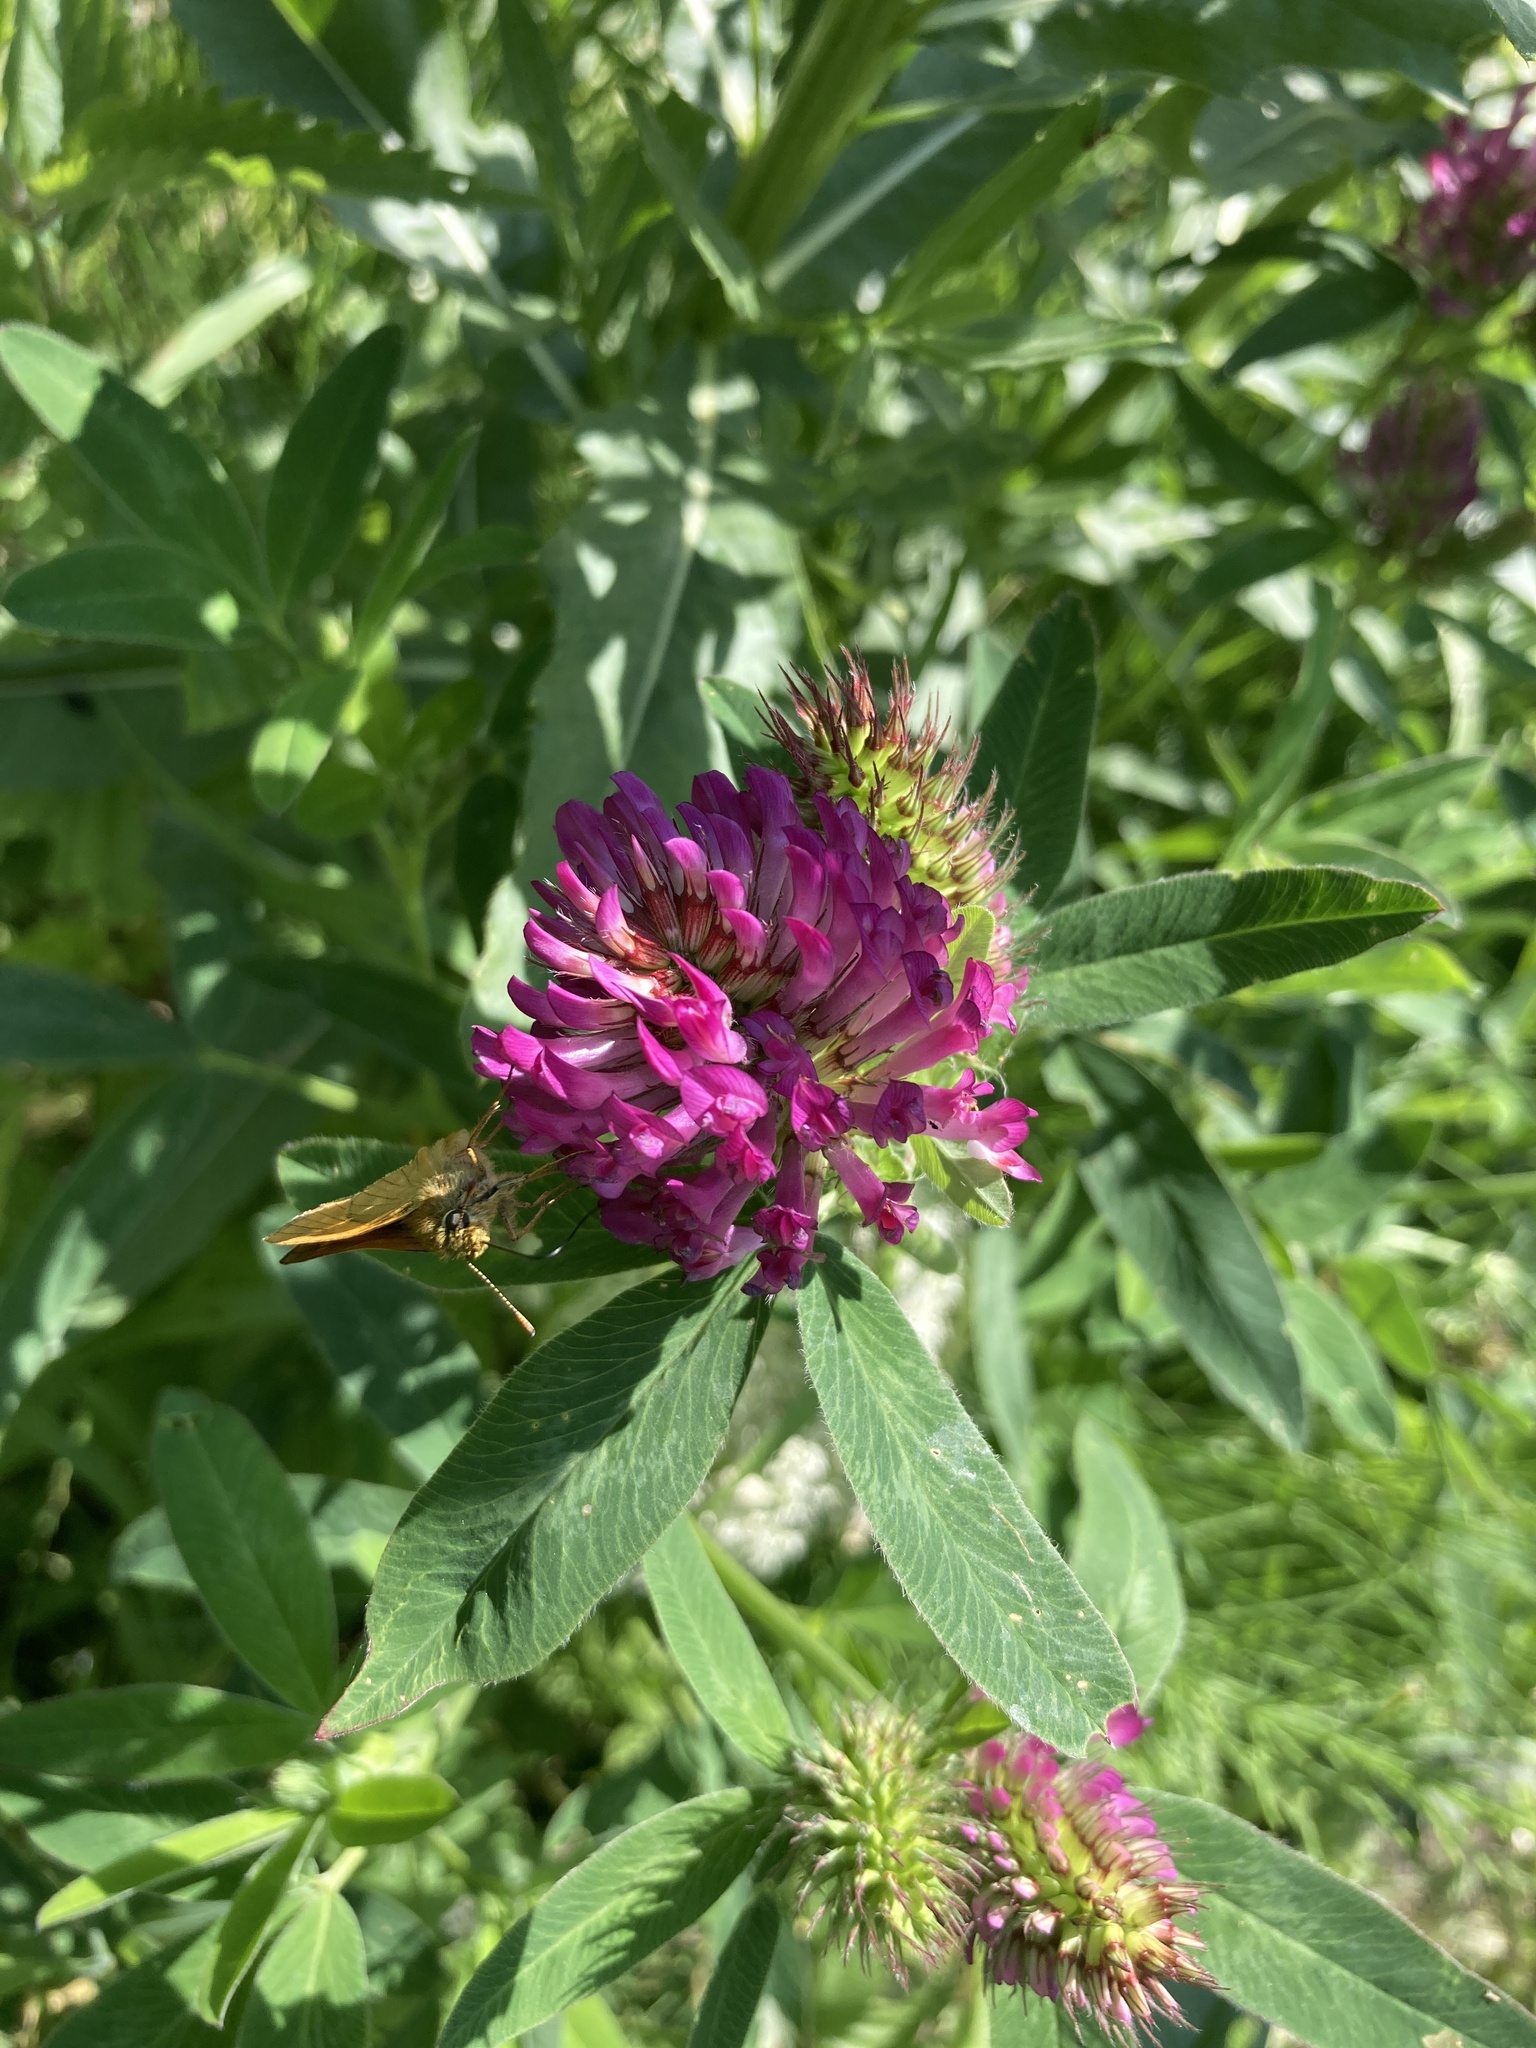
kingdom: Plantae
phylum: Tracheophyta
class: Magnoliopsida
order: Fabales
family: Fabaceae
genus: Trifolium
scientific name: Trifolium medium
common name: Zigzag clover
